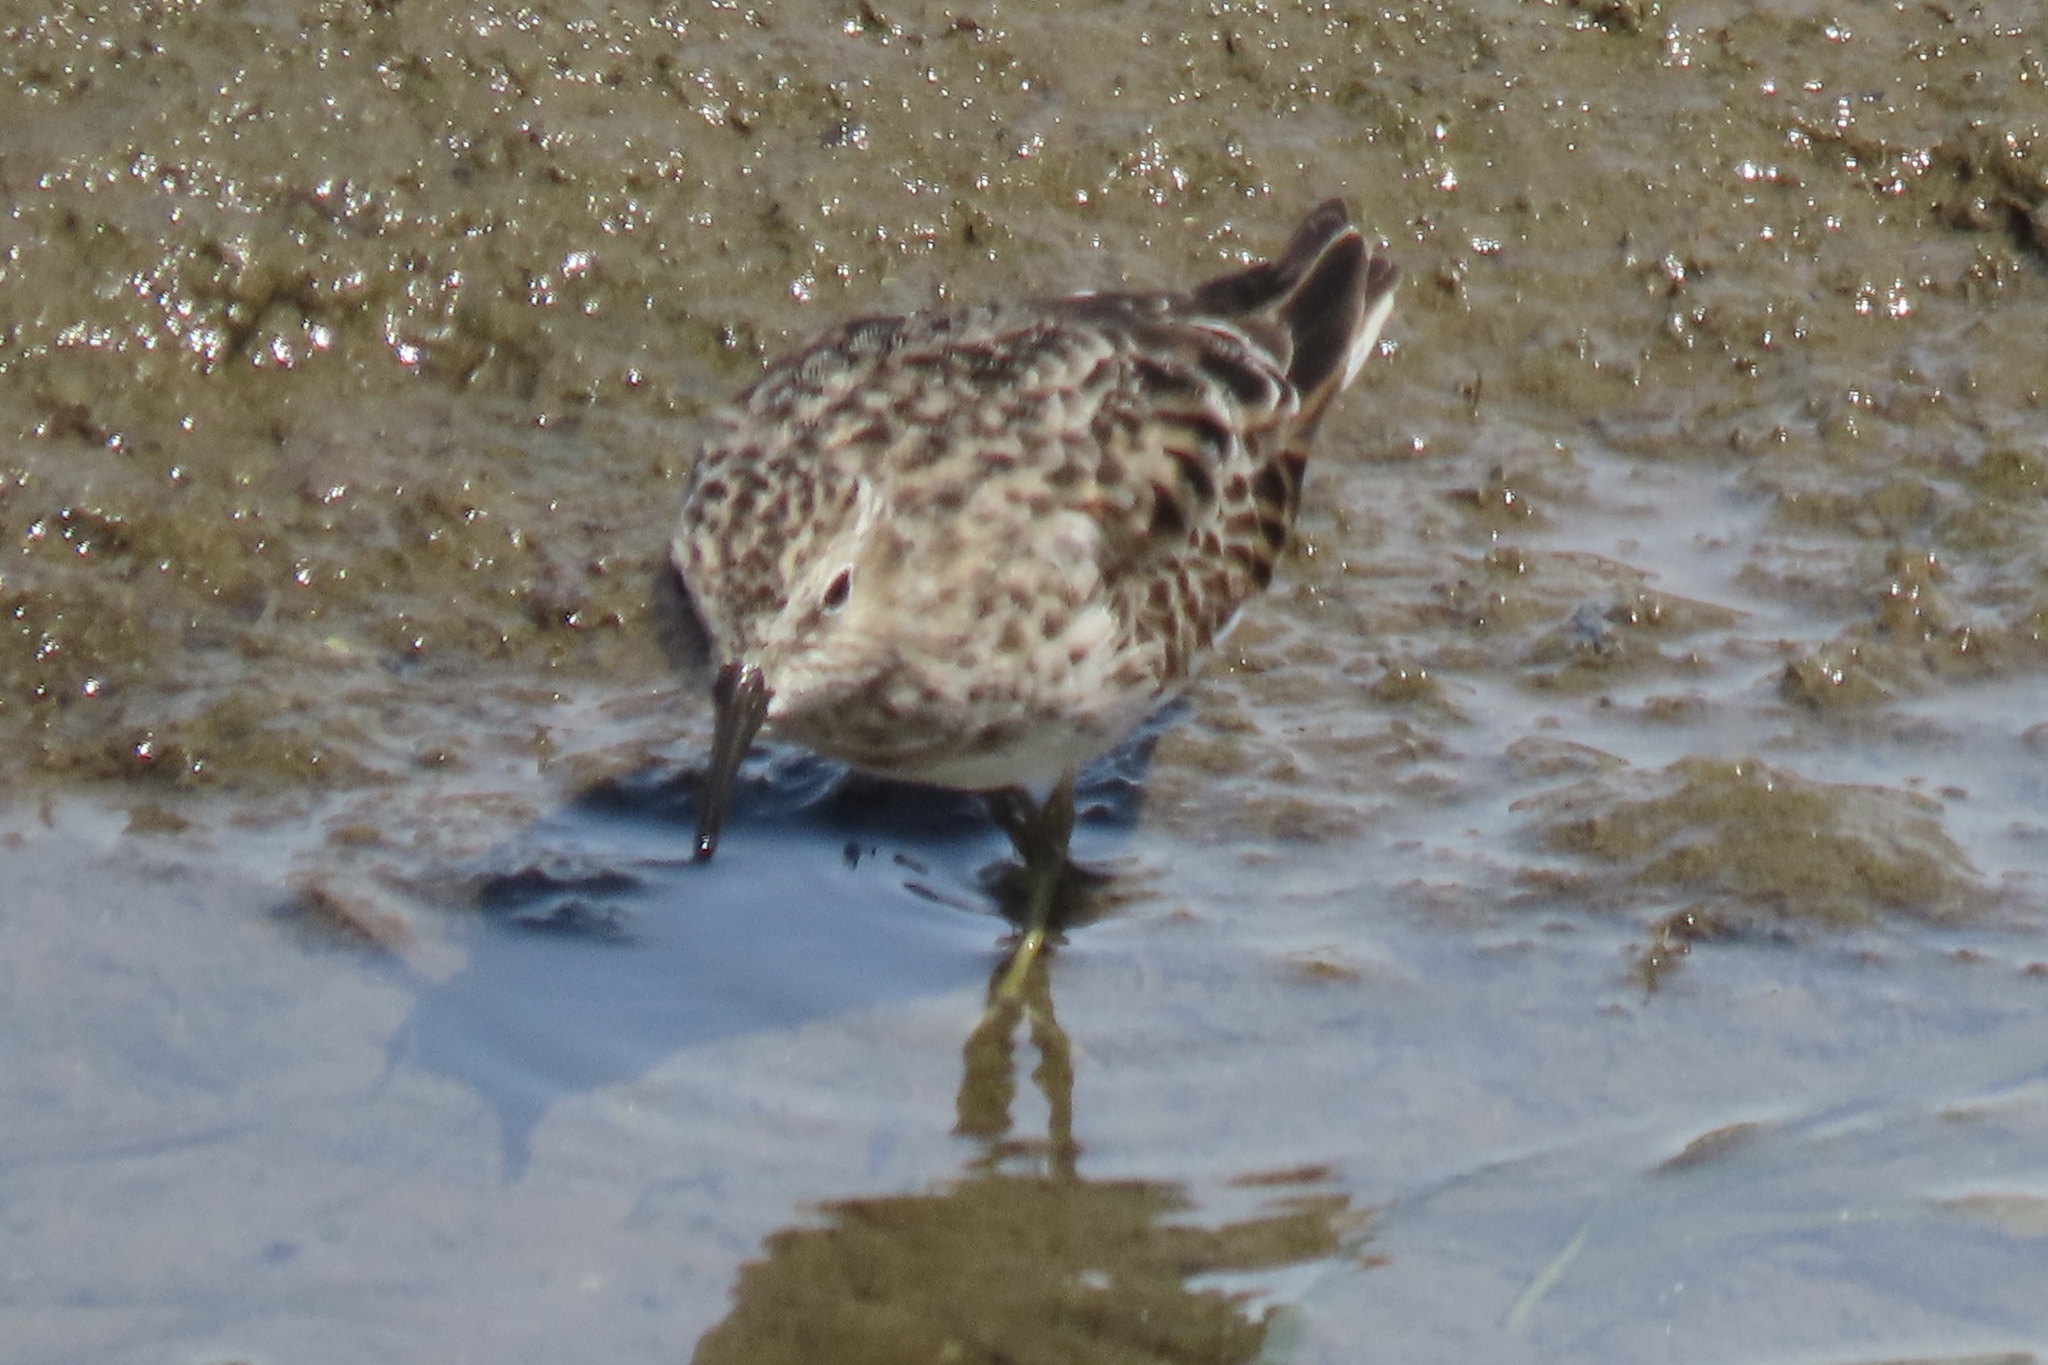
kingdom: Animalia
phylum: Chordata
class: Aves
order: Charadriiformes
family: Scolopacidae
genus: Calidris
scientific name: Calidris minutilla
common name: Least sandpiper
